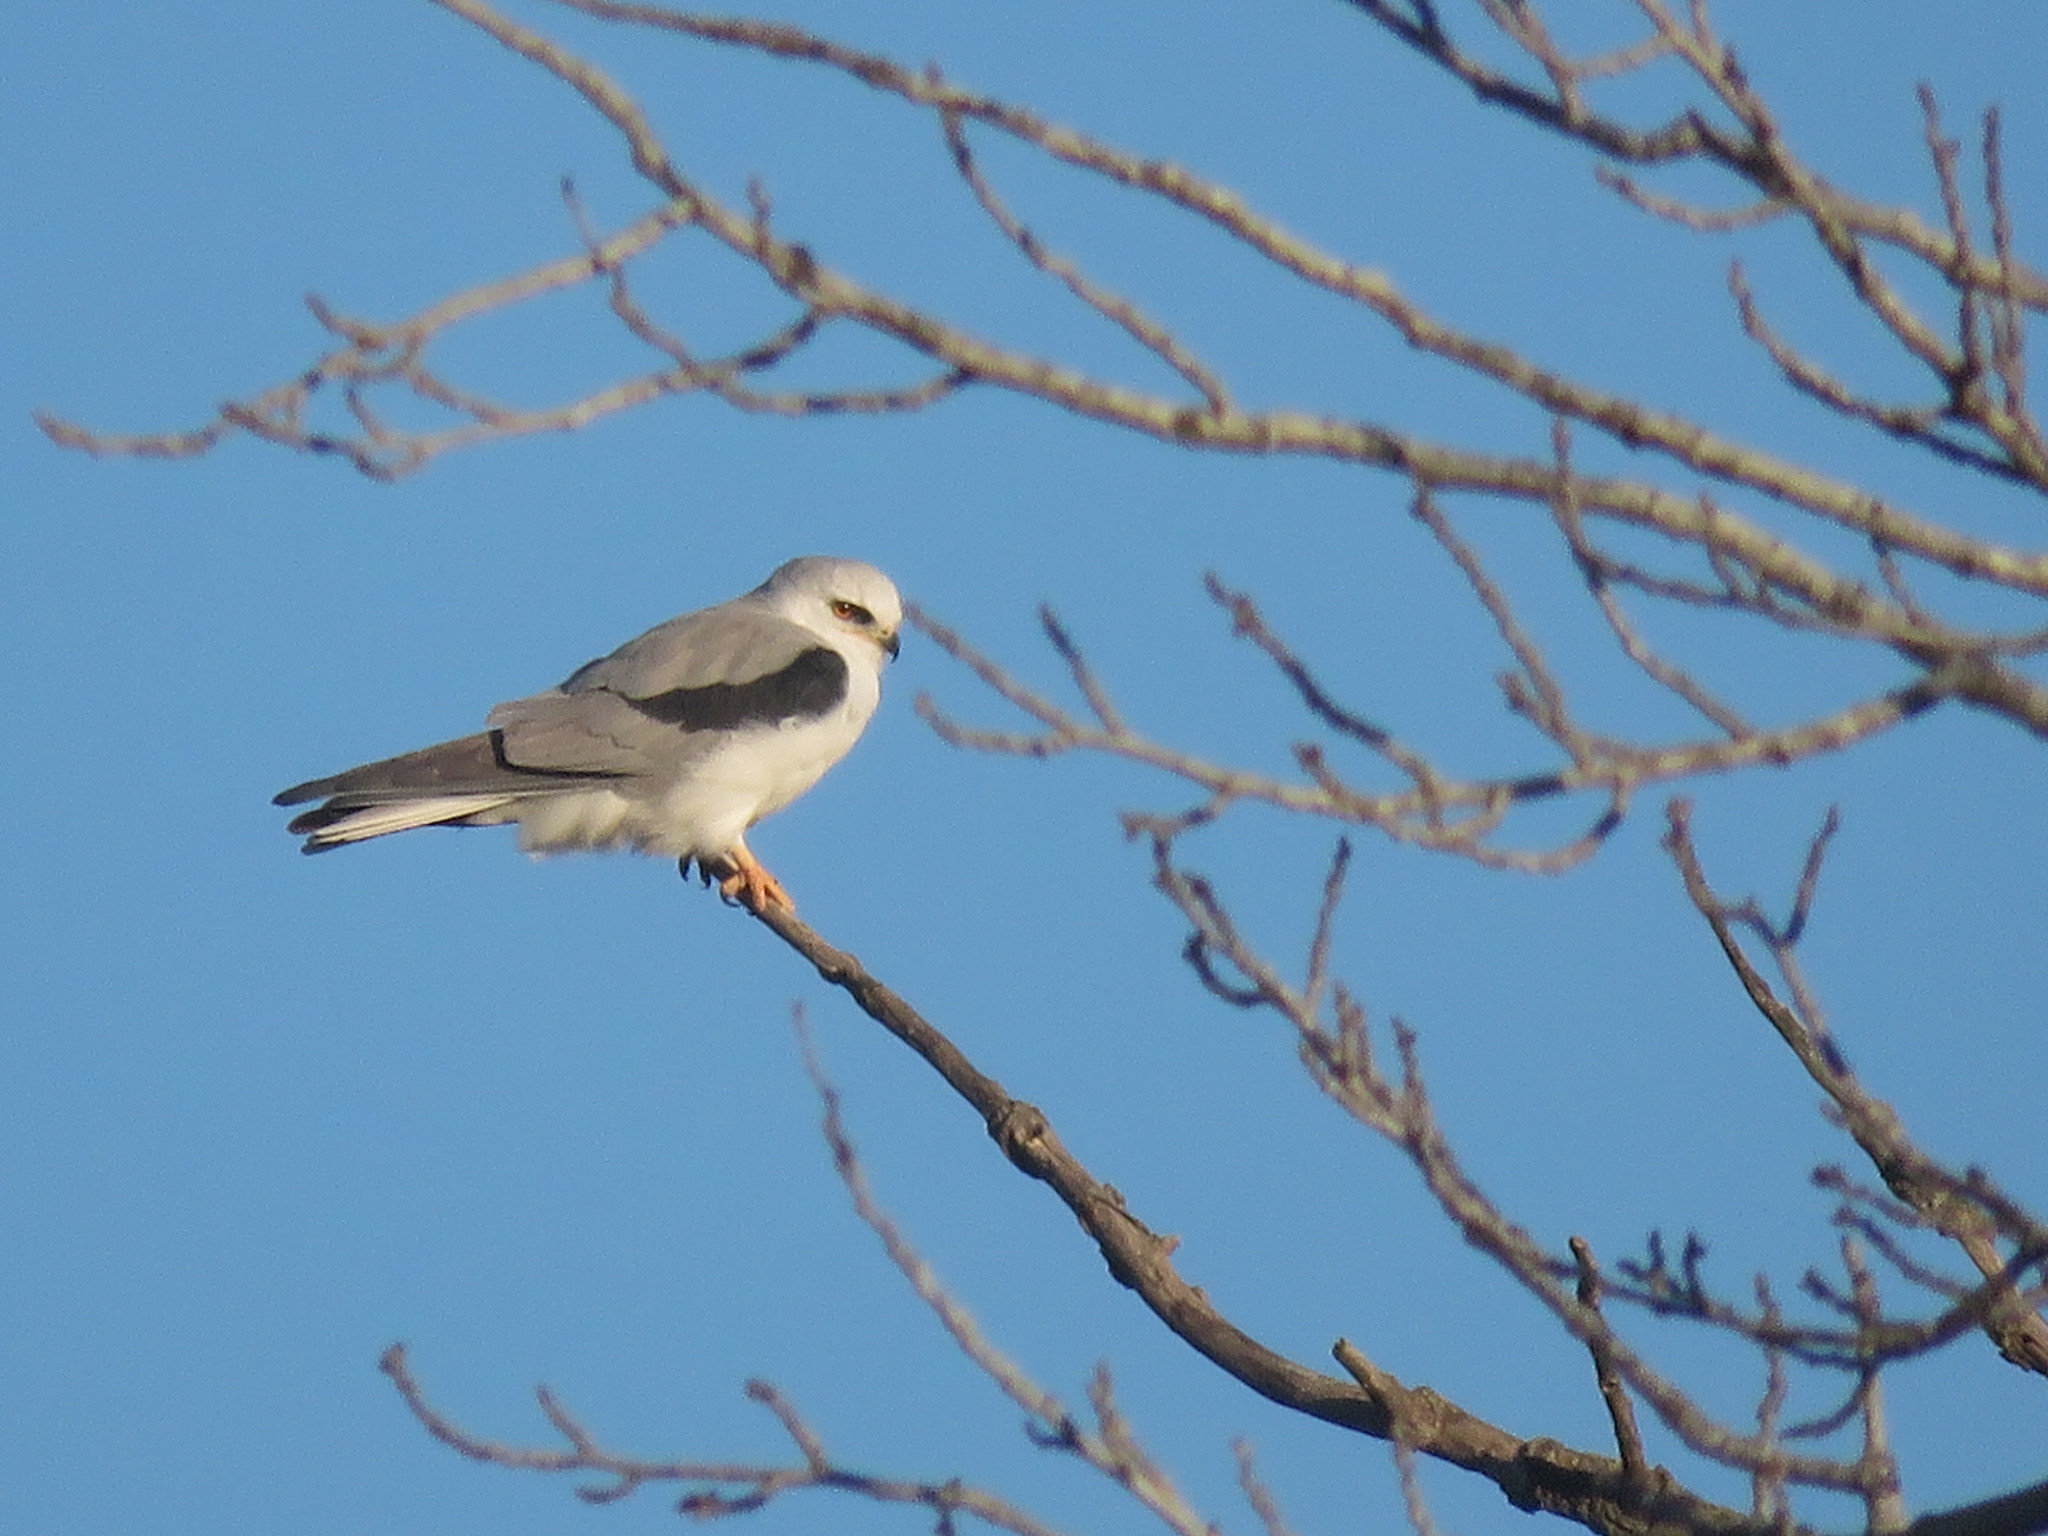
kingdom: Animalia
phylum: Chordata
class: Aves
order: Accipitriformes
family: Accipitridae
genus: Elanus
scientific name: Elanus leucurus
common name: White-tailed kite
